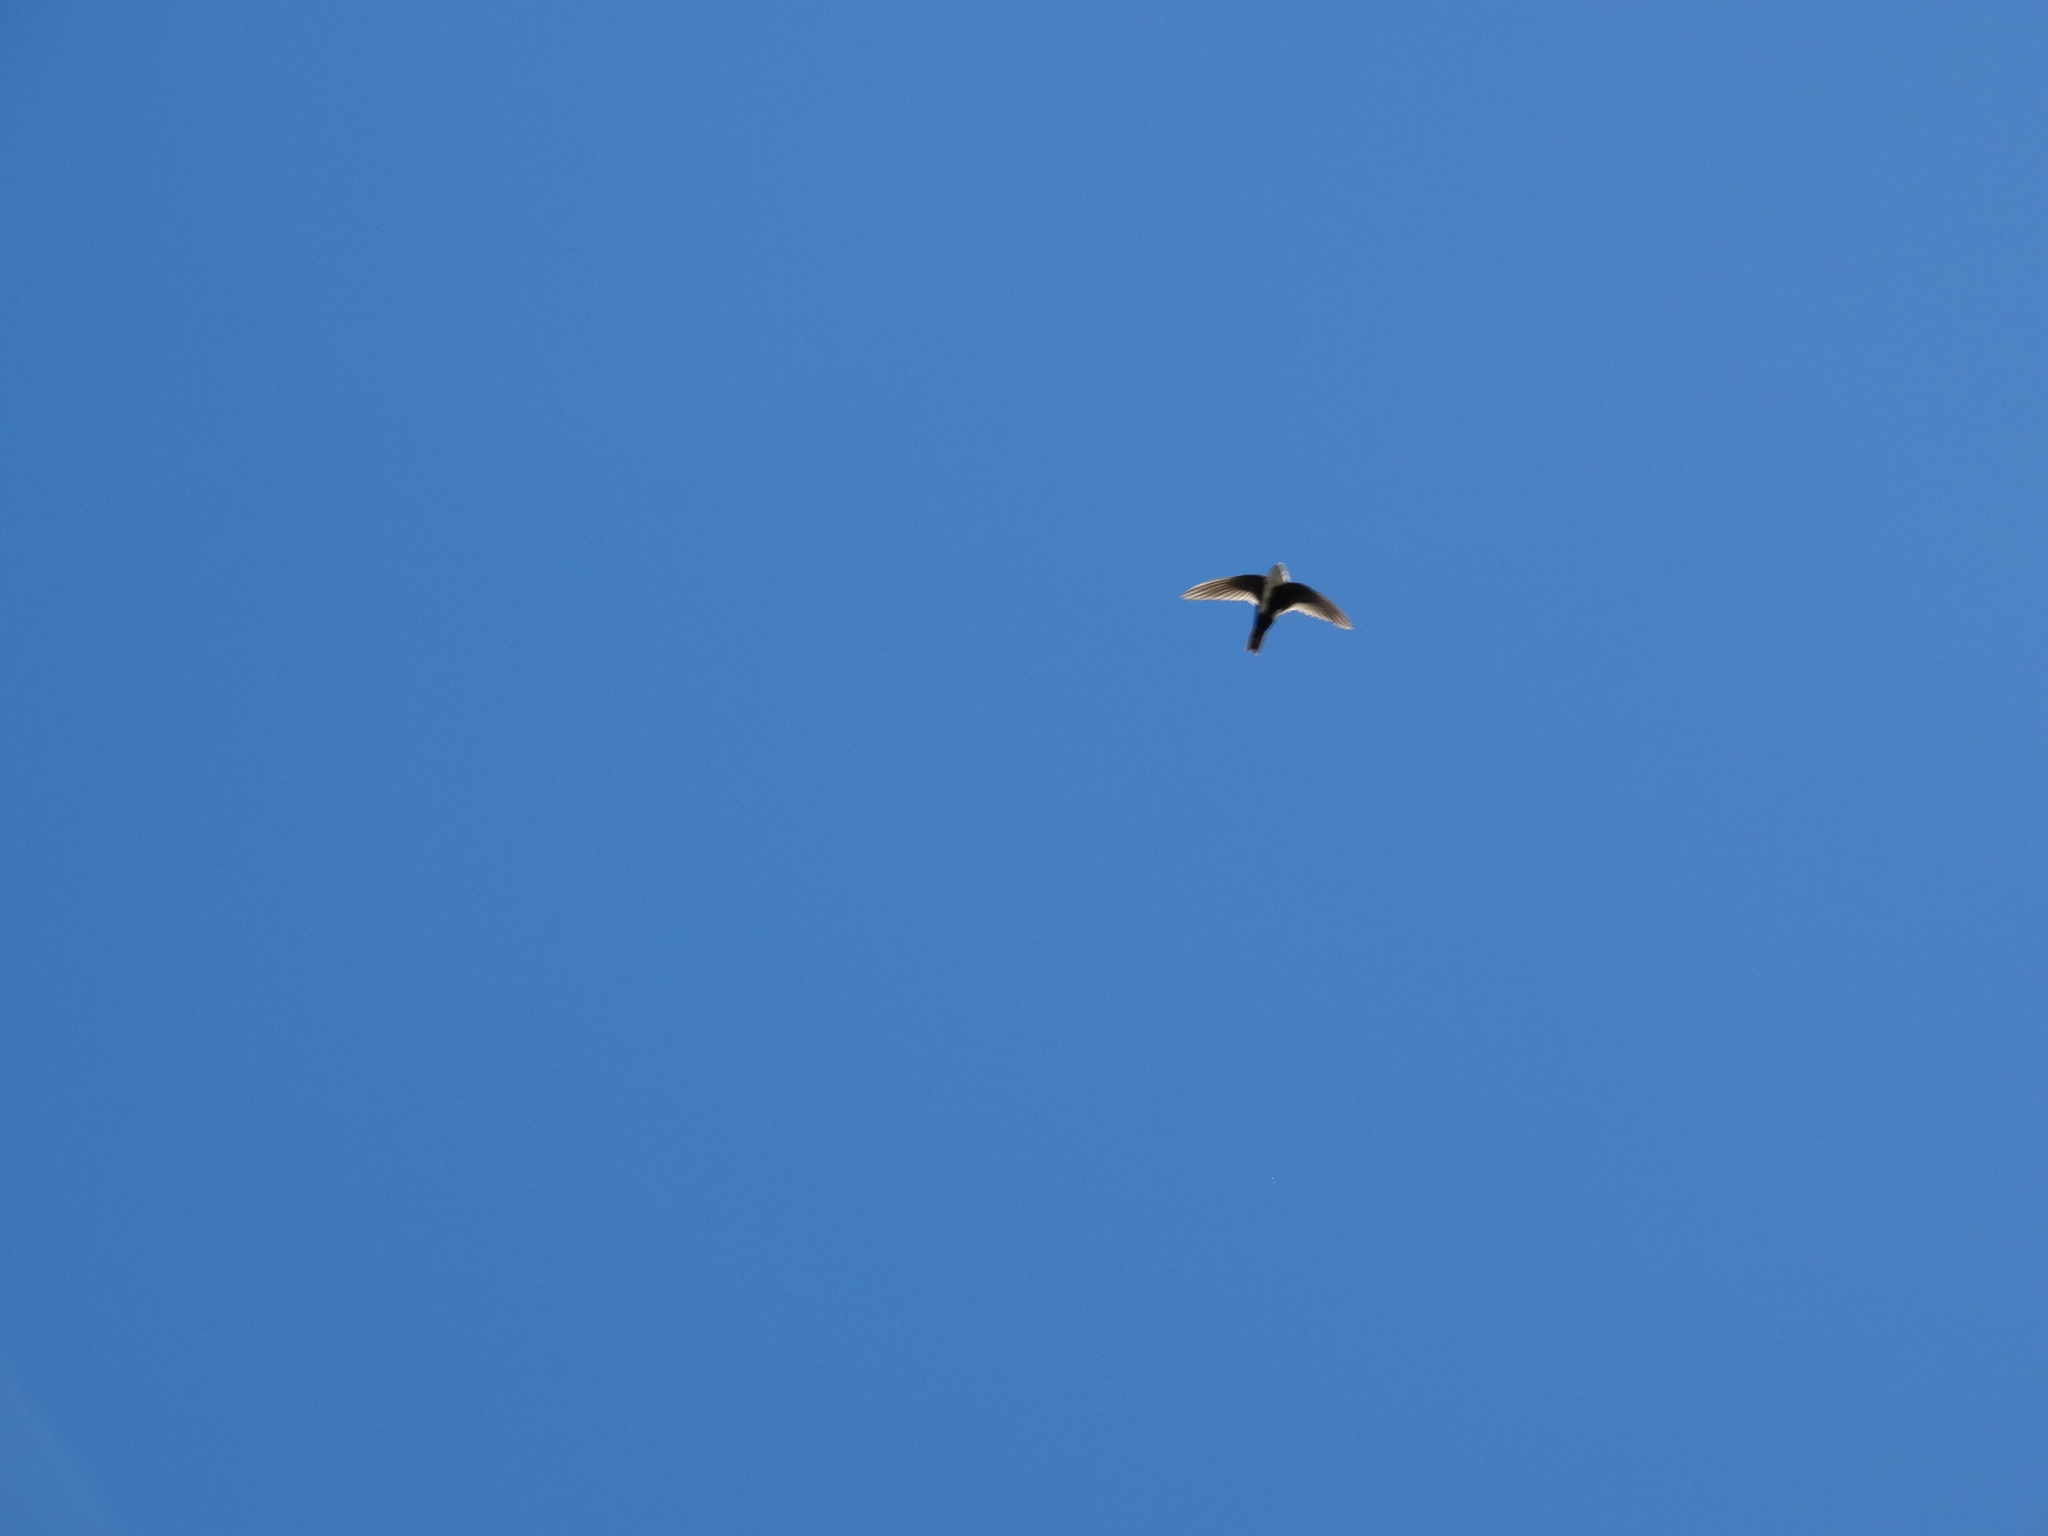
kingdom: Animalia
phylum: Chordata
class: Aves
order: Apodiformes
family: Apodidae
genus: Aeronautes
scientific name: Aeronautes saxatalis
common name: White-throated swift
